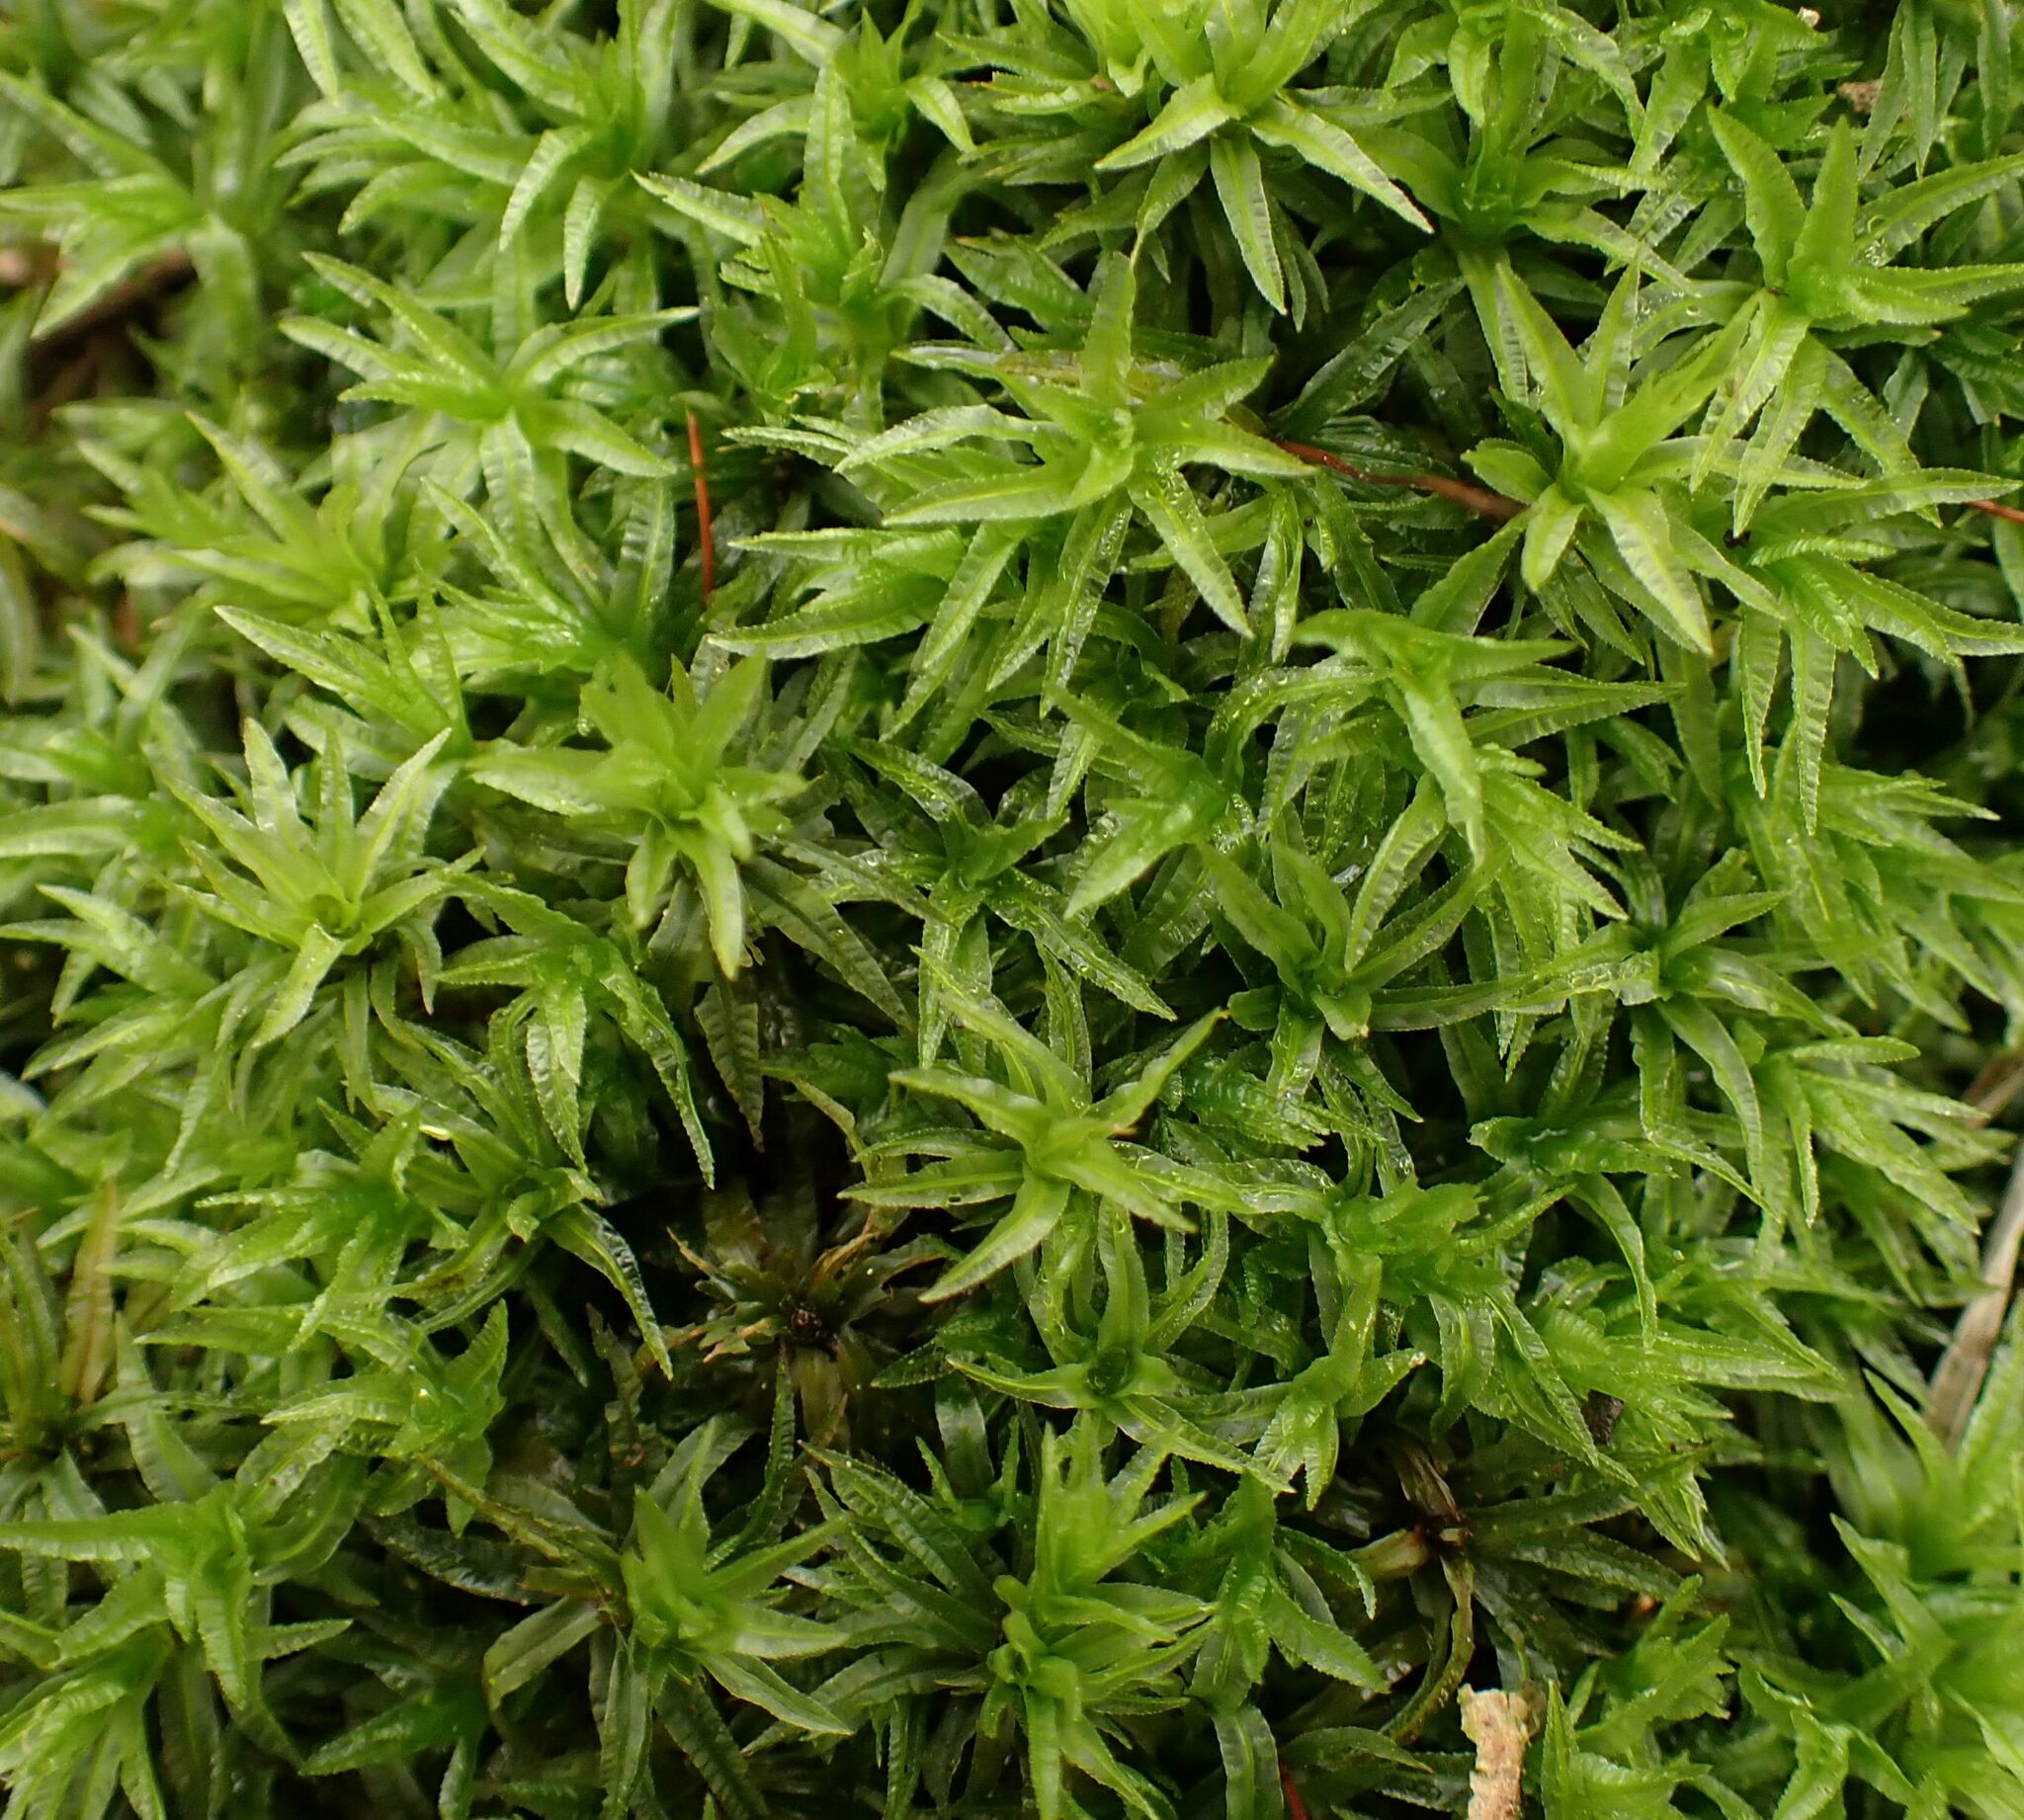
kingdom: Plantae
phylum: Bryophyta
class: Polytrichopsida
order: Polytrichales
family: Polytrichaceae
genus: Atrichum
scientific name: Atrichum undulatum
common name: Common smoothcap
